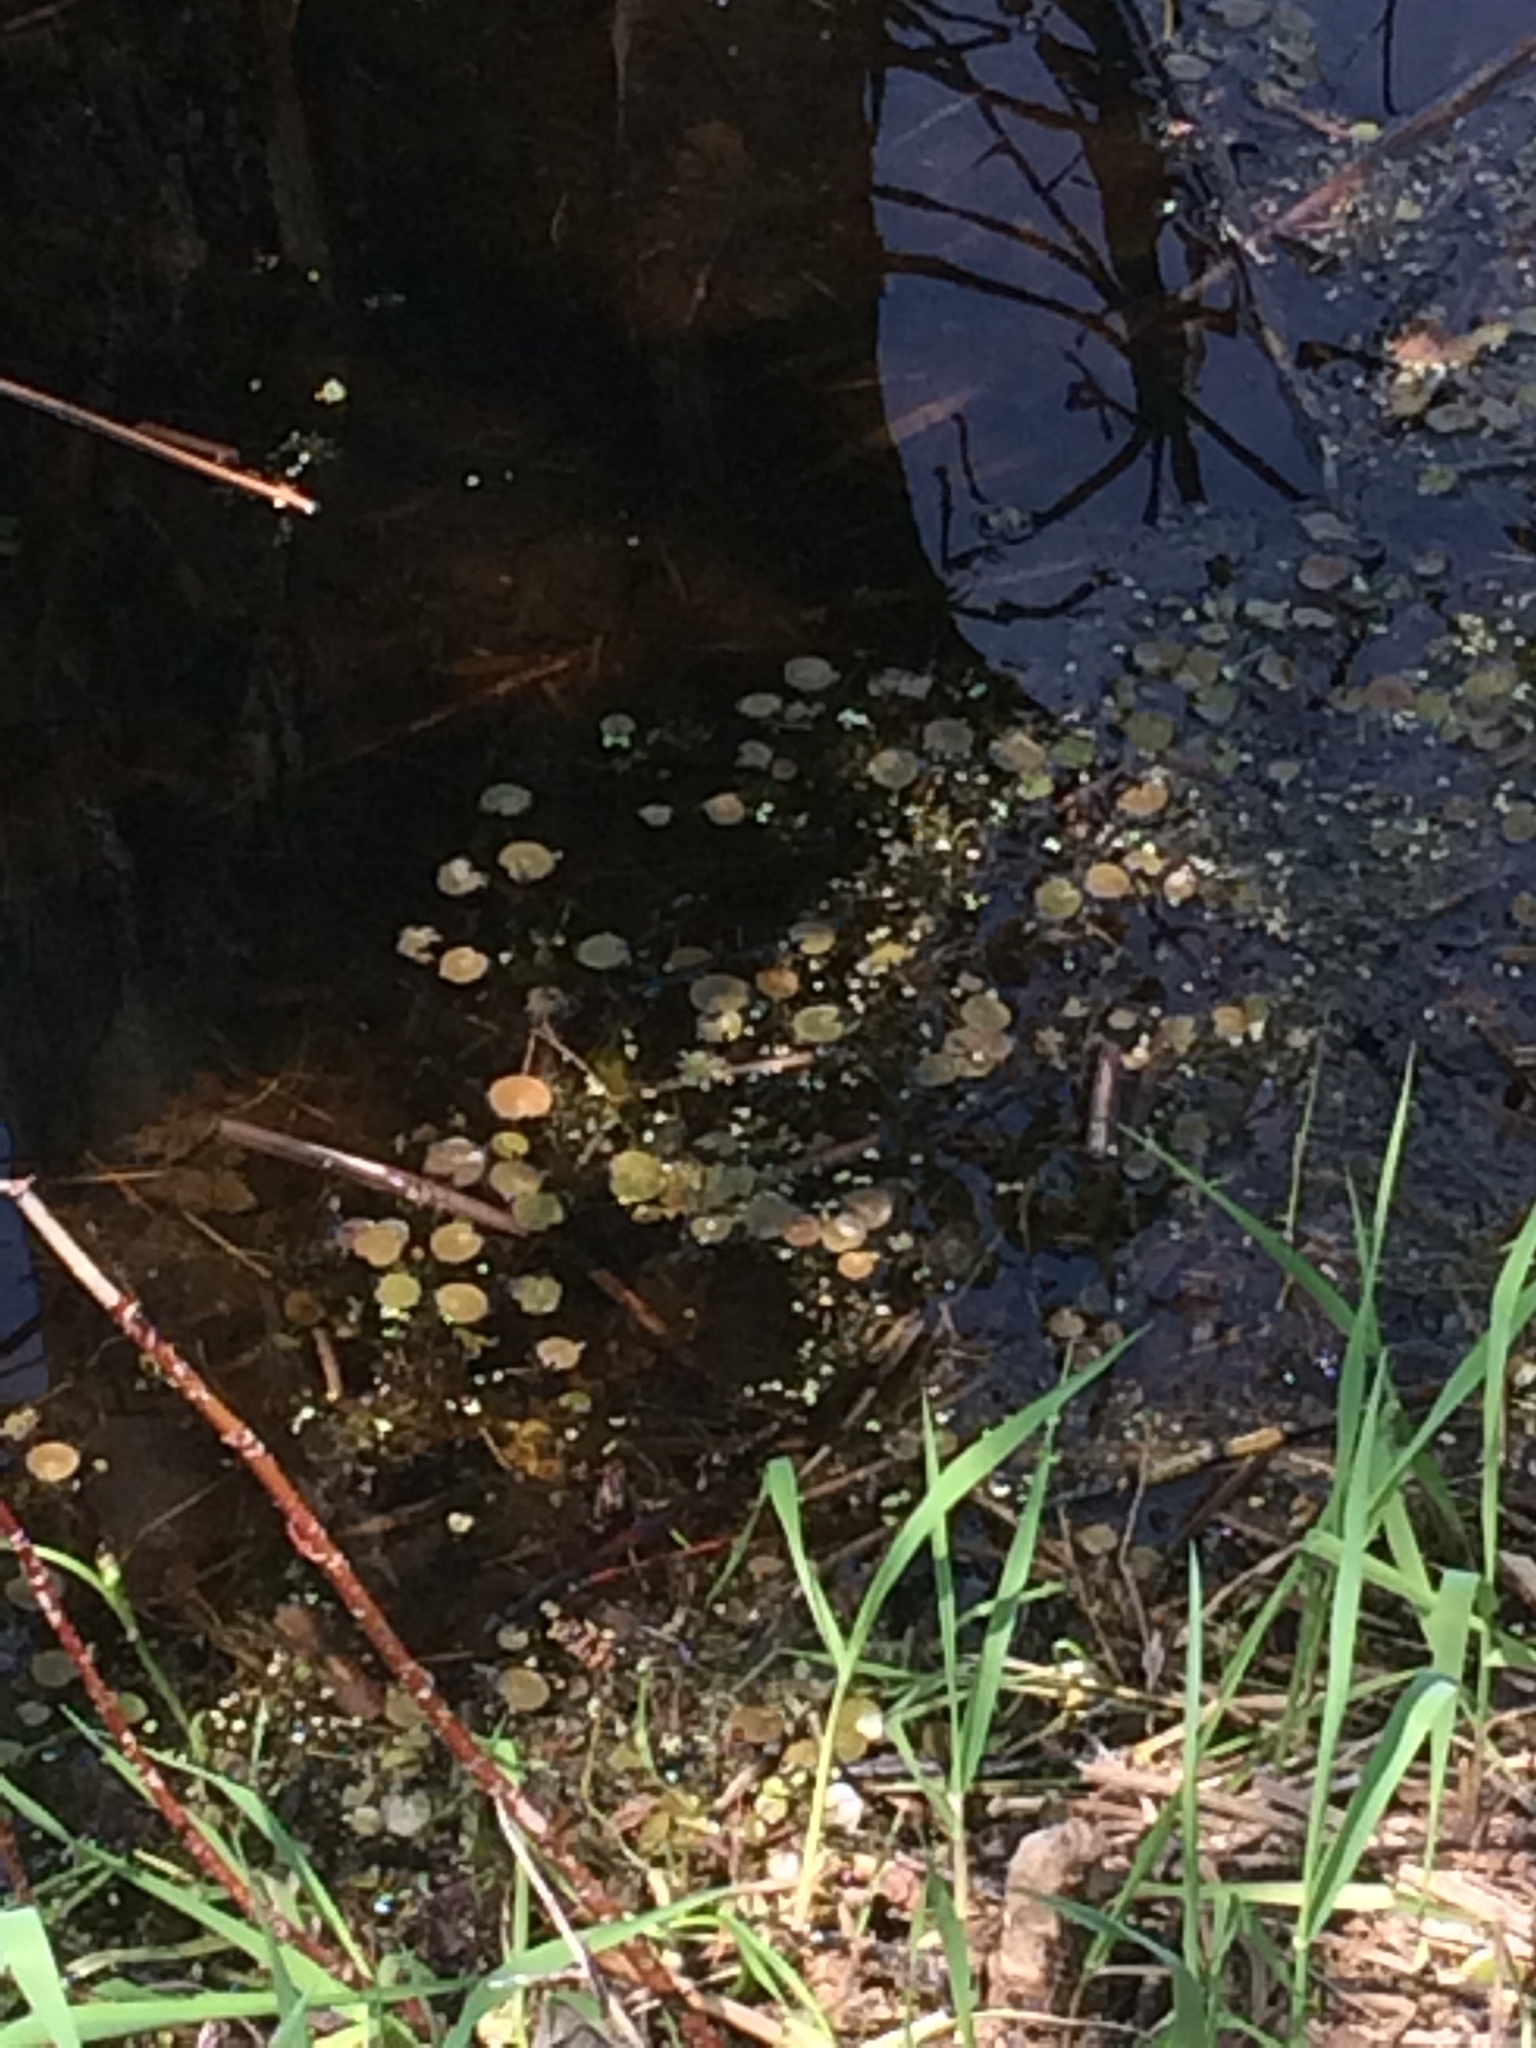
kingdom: Plantae
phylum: Tracheophyta
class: Liliopsida
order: Alismatales
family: Hydrocharitaceae
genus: Hydrocharis
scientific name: Hydrocharis morsus-ranae
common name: Frogbit
